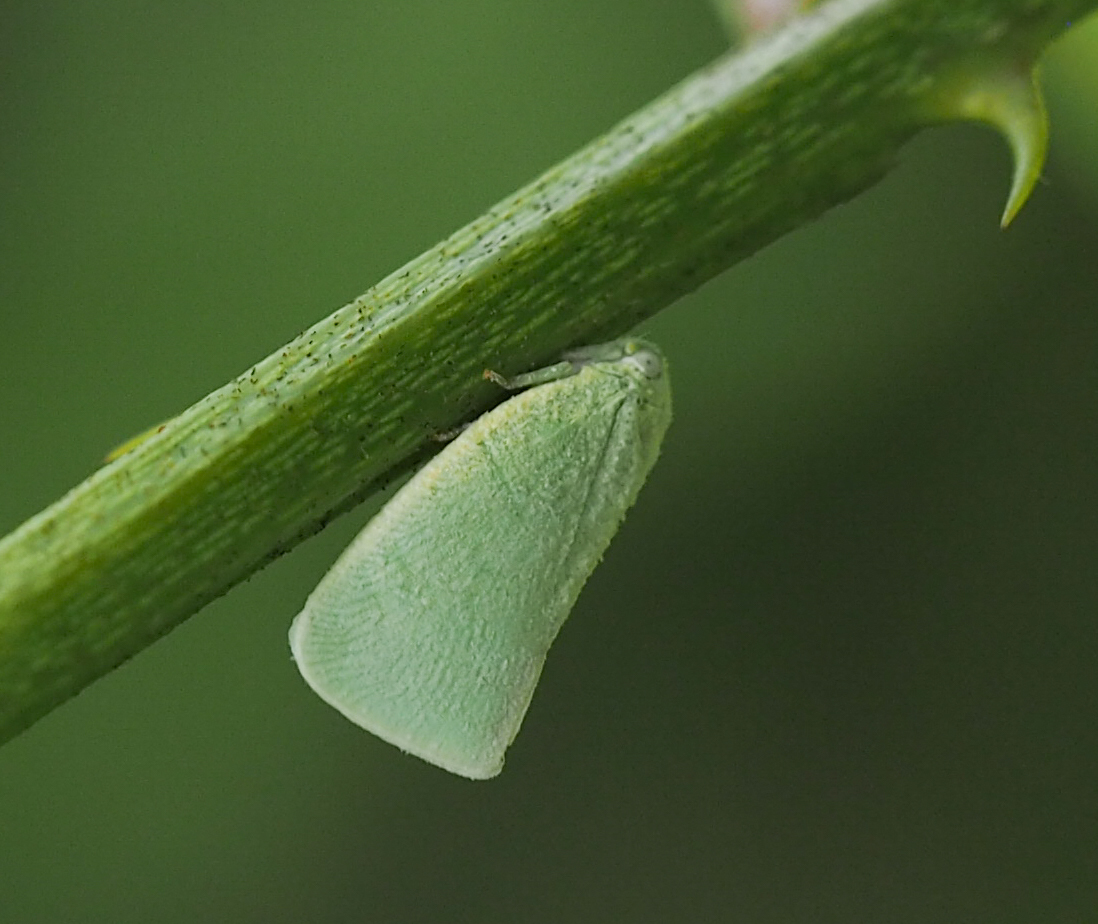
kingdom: Animalia
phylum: Arthropoda
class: Insecta
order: Hemiptera
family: Flatidae
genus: Flatormenis
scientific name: Flatormenis proxima
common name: Northern flatid planthopper
